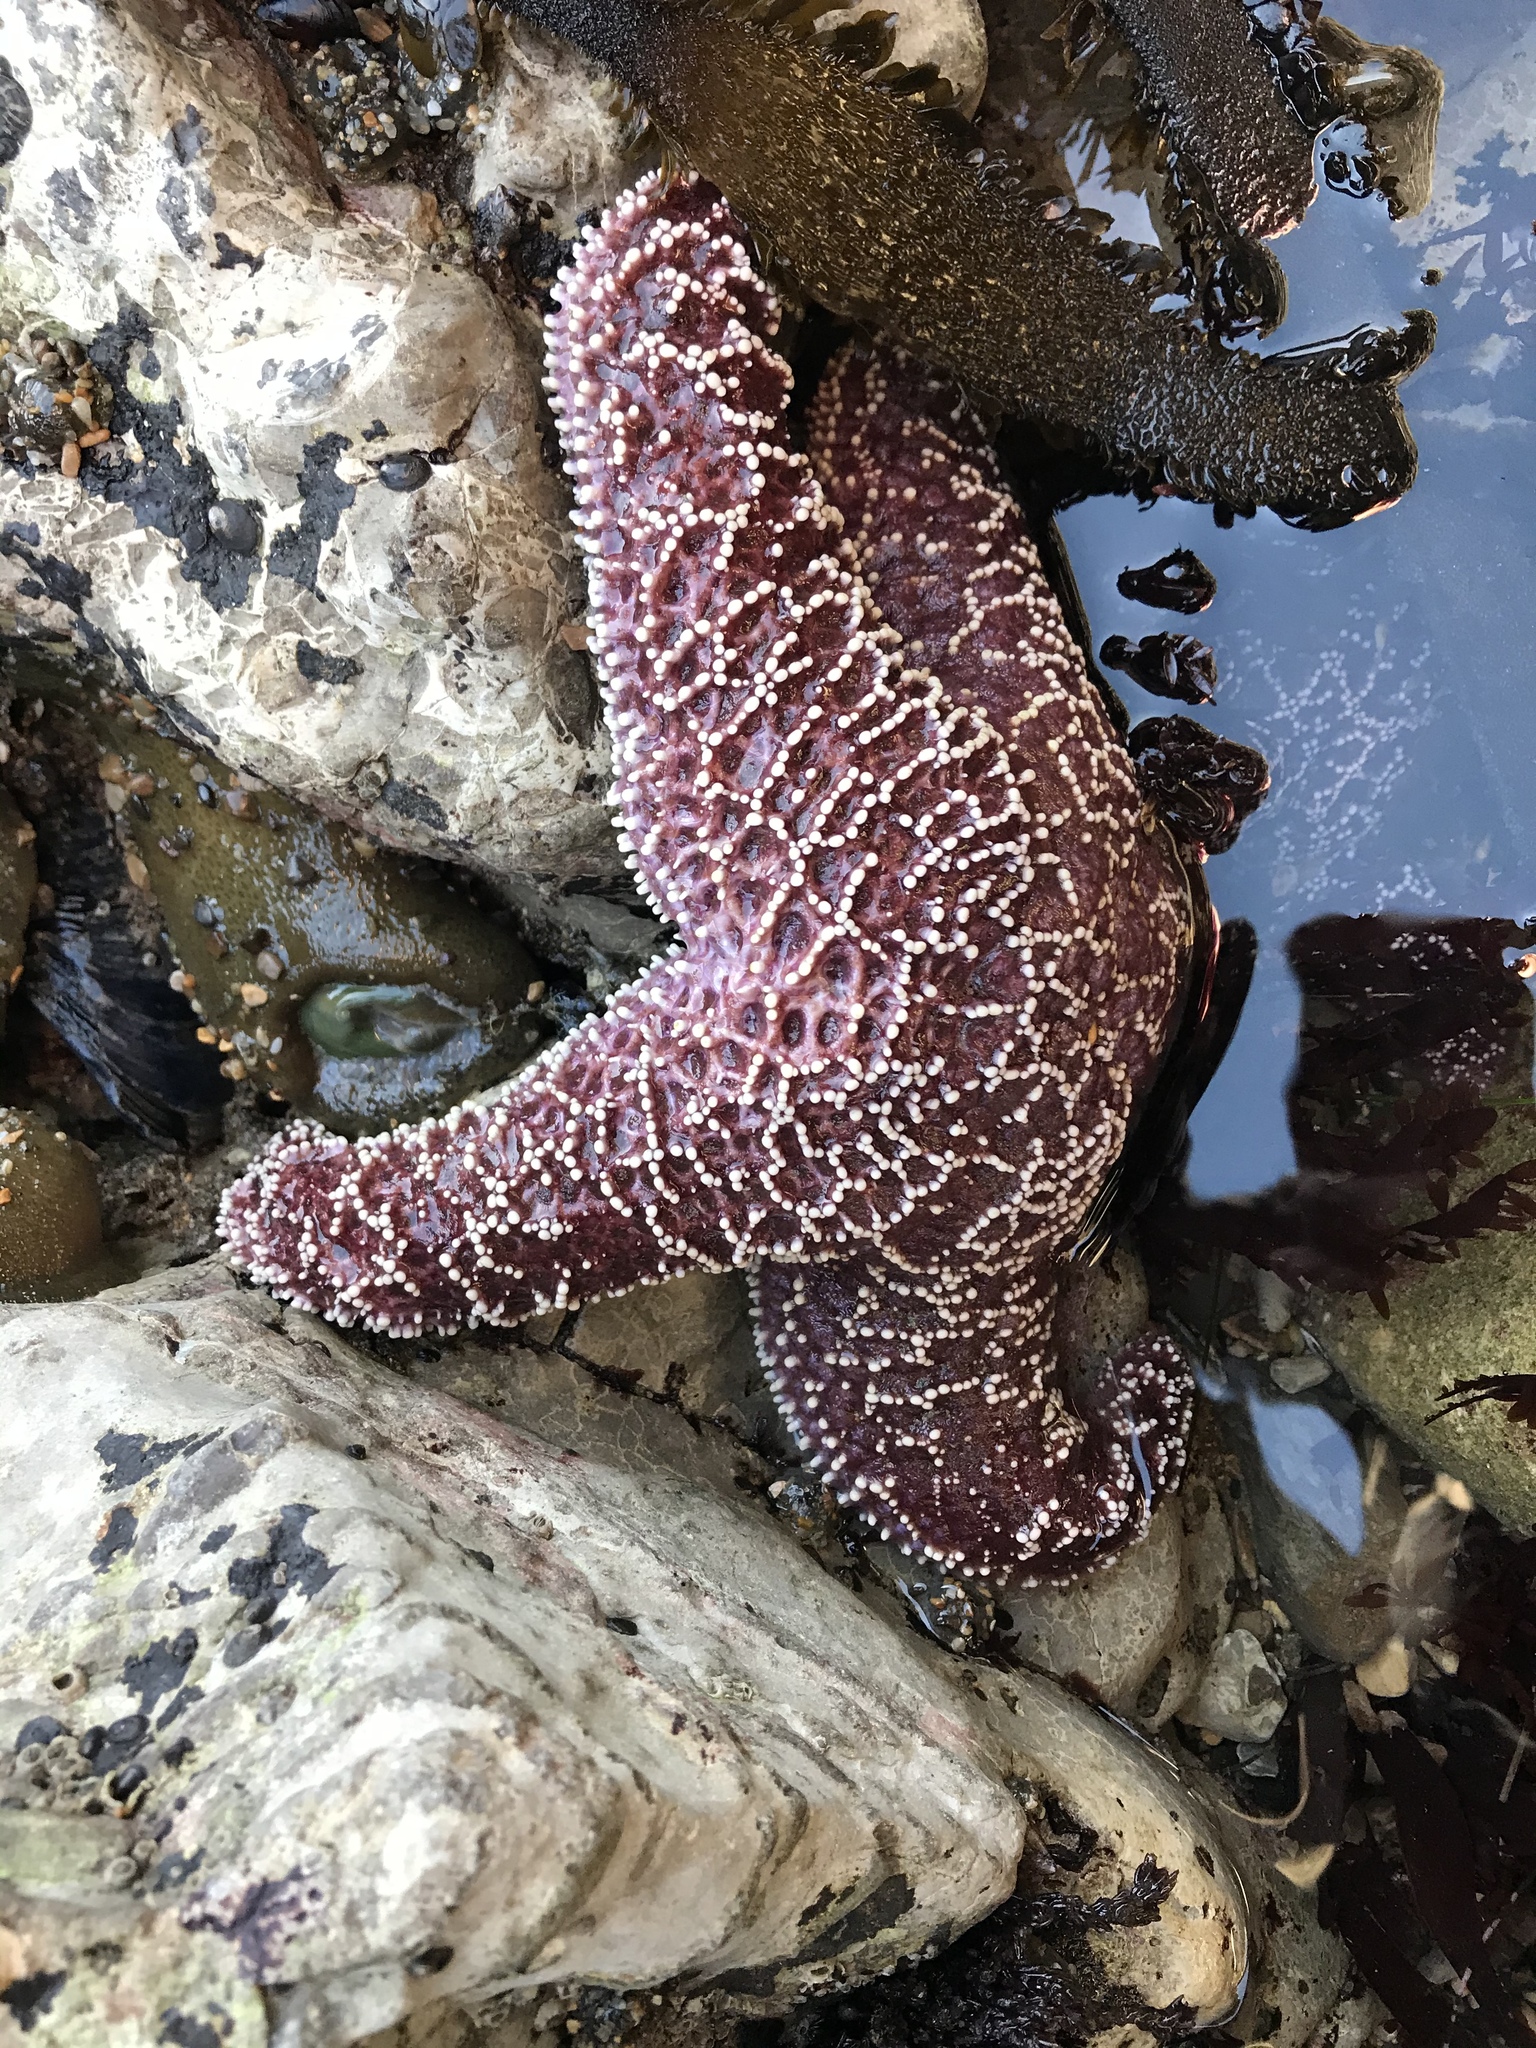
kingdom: Animalia
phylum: Echinodermata
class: Asteroidea
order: Forcipulatida
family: Asteriidae
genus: Pisaster
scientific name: Pisaster ochraceus
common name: Ochre stars
